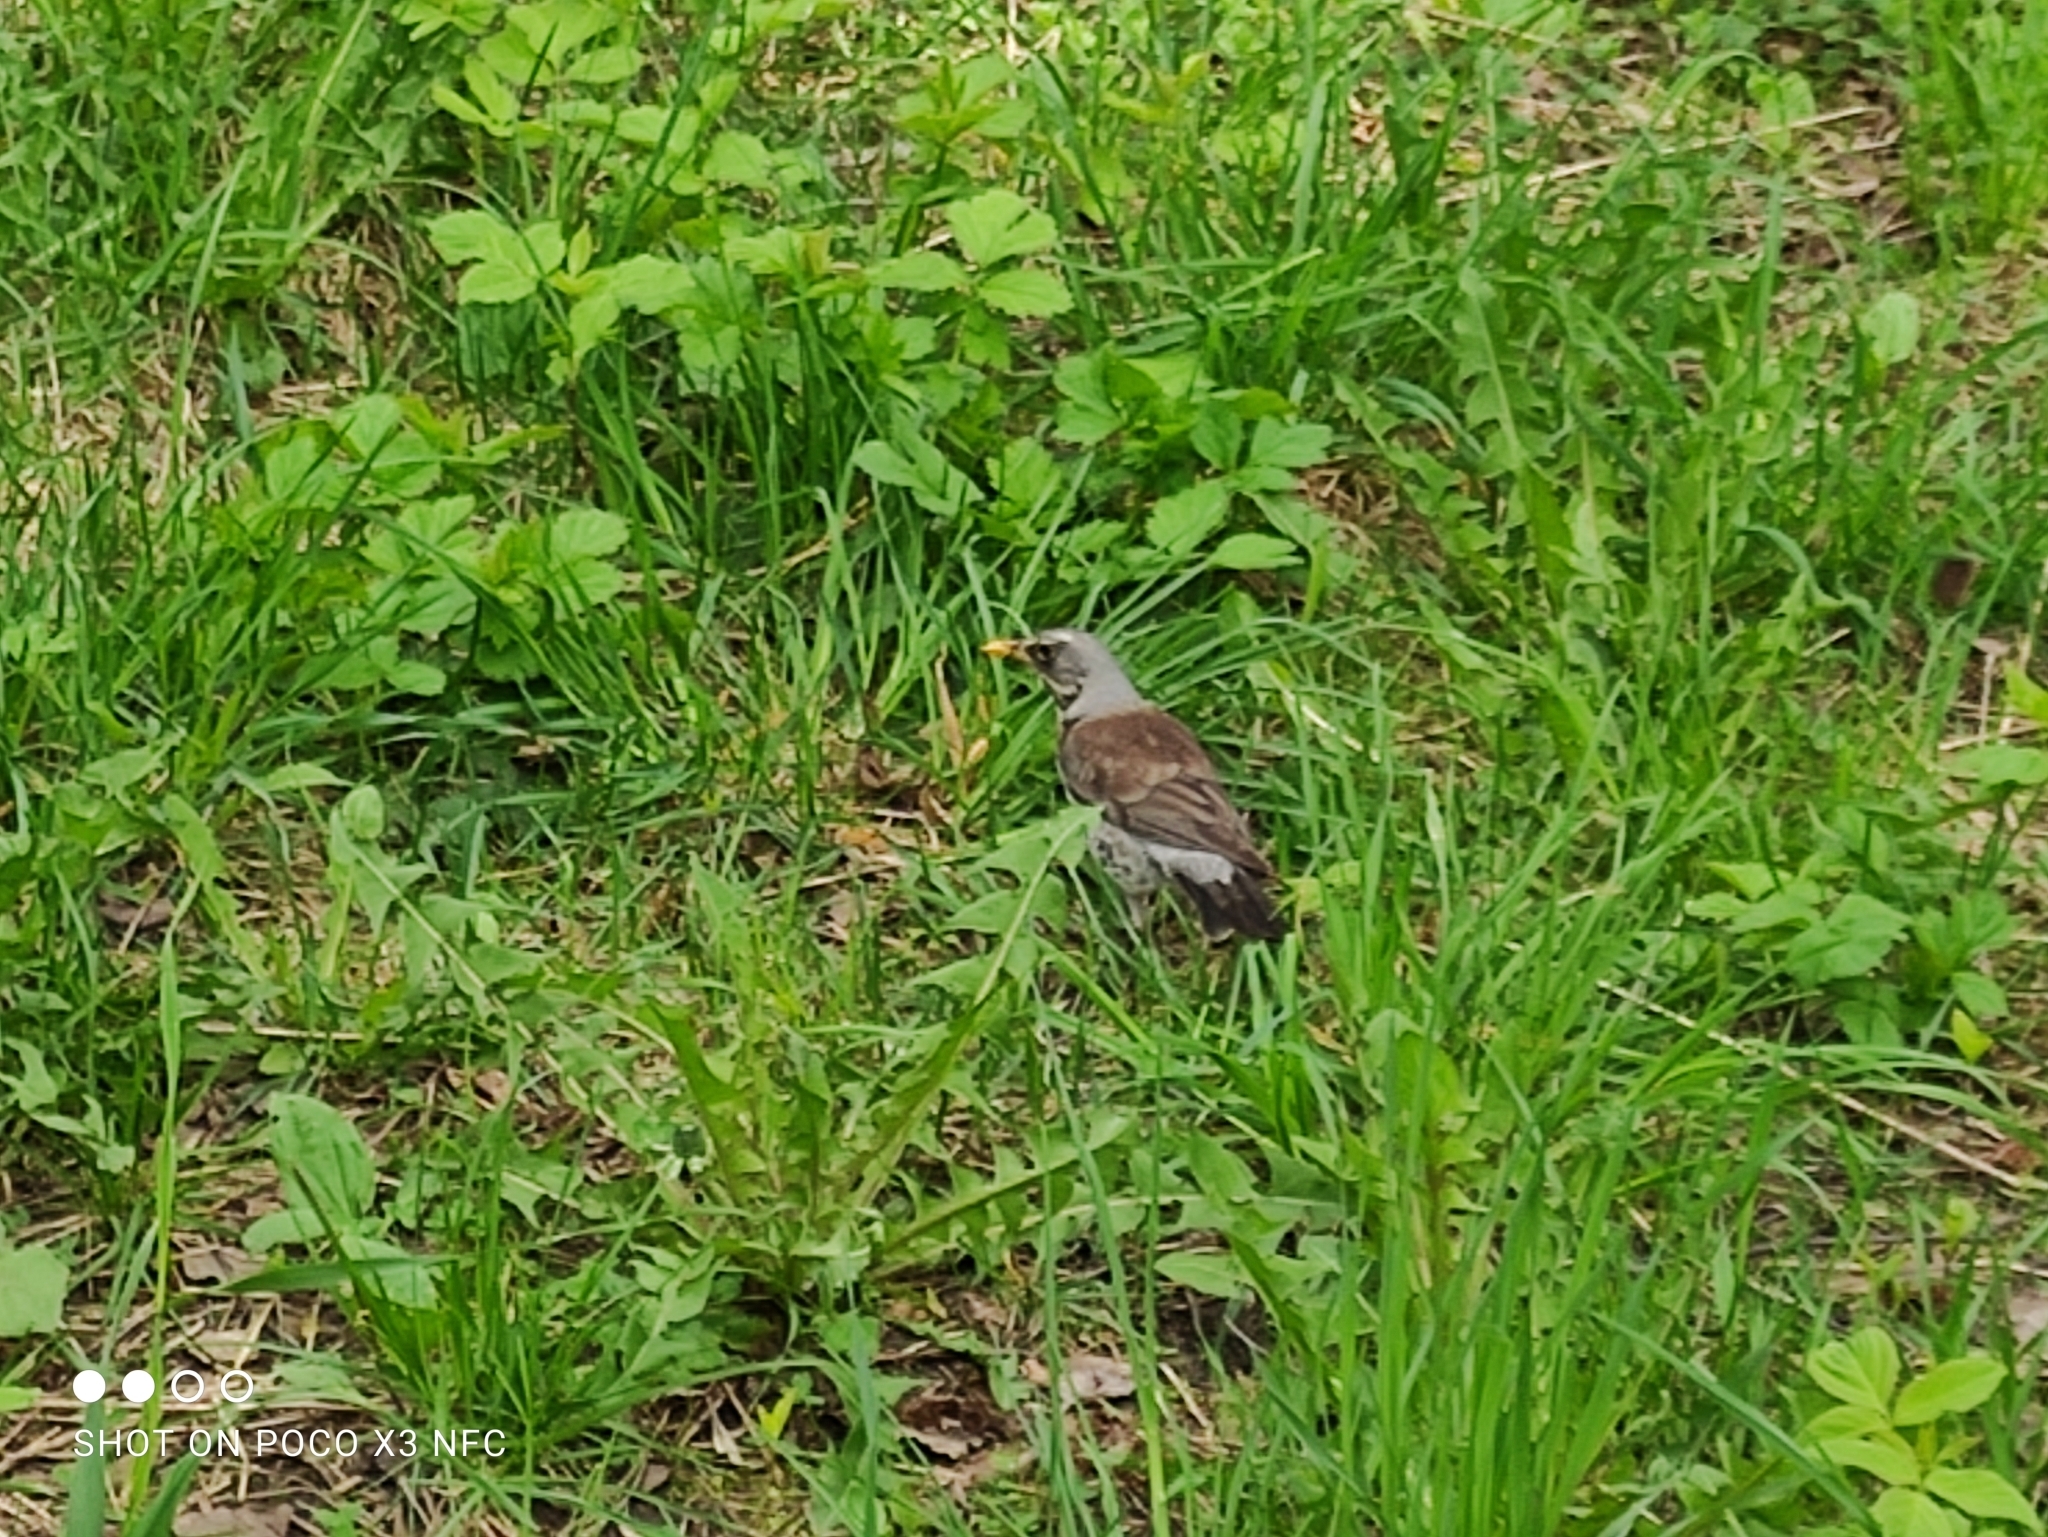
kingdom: Animalia
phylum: Chordata
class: Aves
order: Passeriformes
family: Turdidae
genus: Turdus
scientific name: Turdus pilaris
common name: Fieldfare
